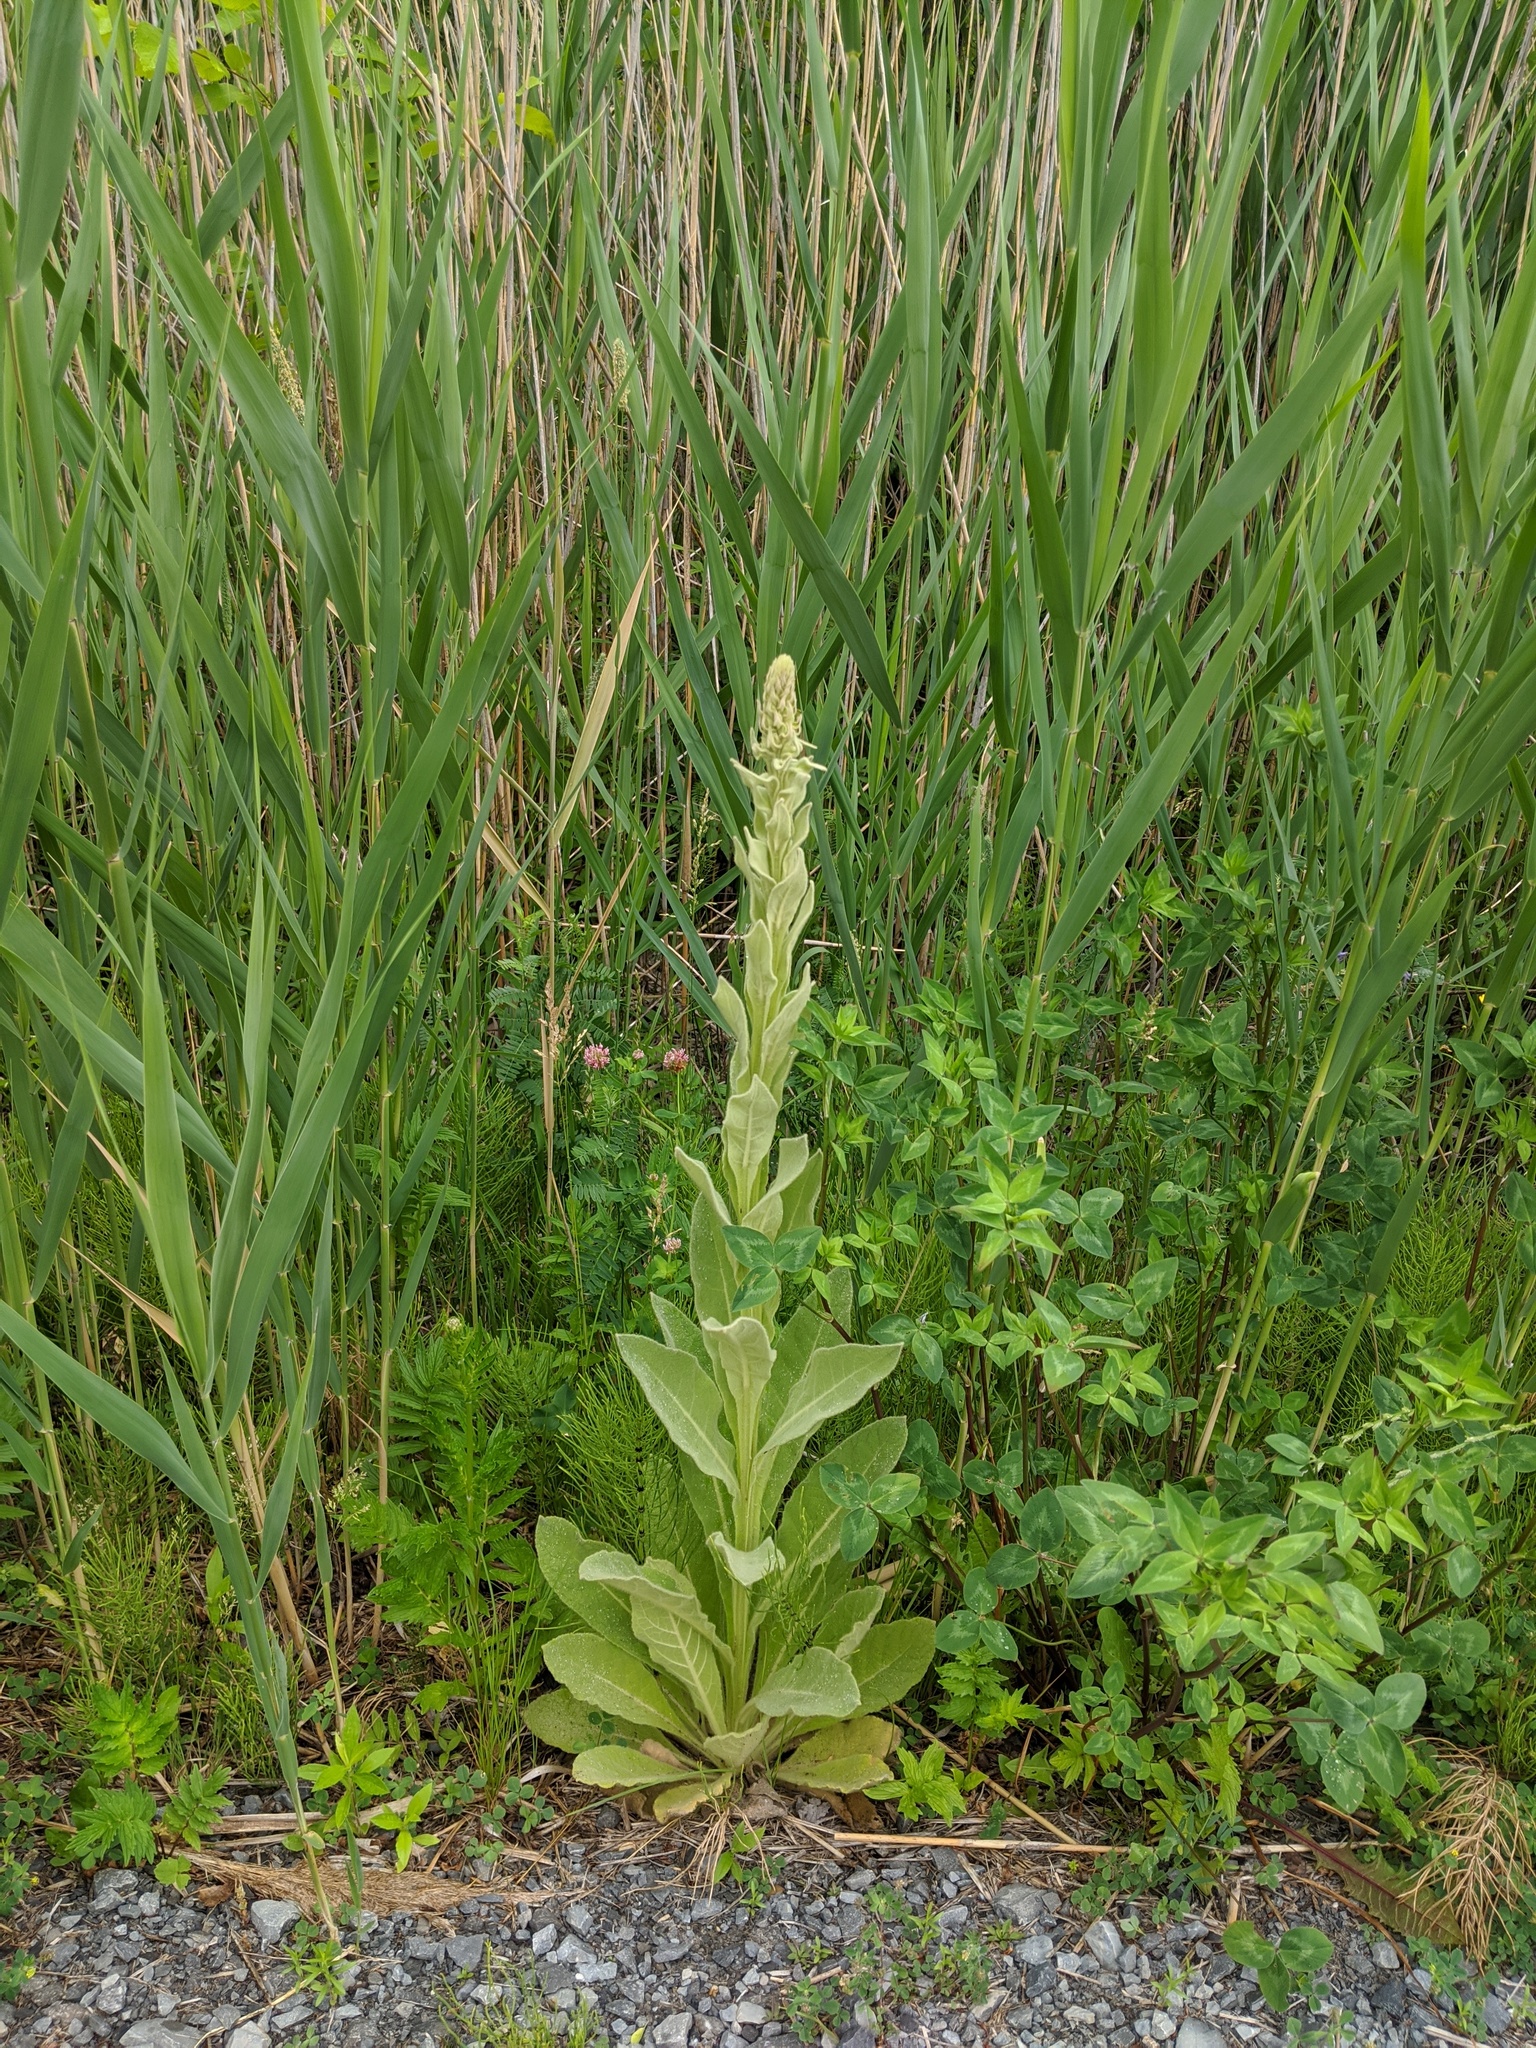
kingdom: Plantae
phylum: Tracheophyta
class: Magnoliopsida
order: Lamiales
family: Scrophulariaceae
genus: Verbascum
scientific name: Verbascum thapsus
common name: Common mullein
